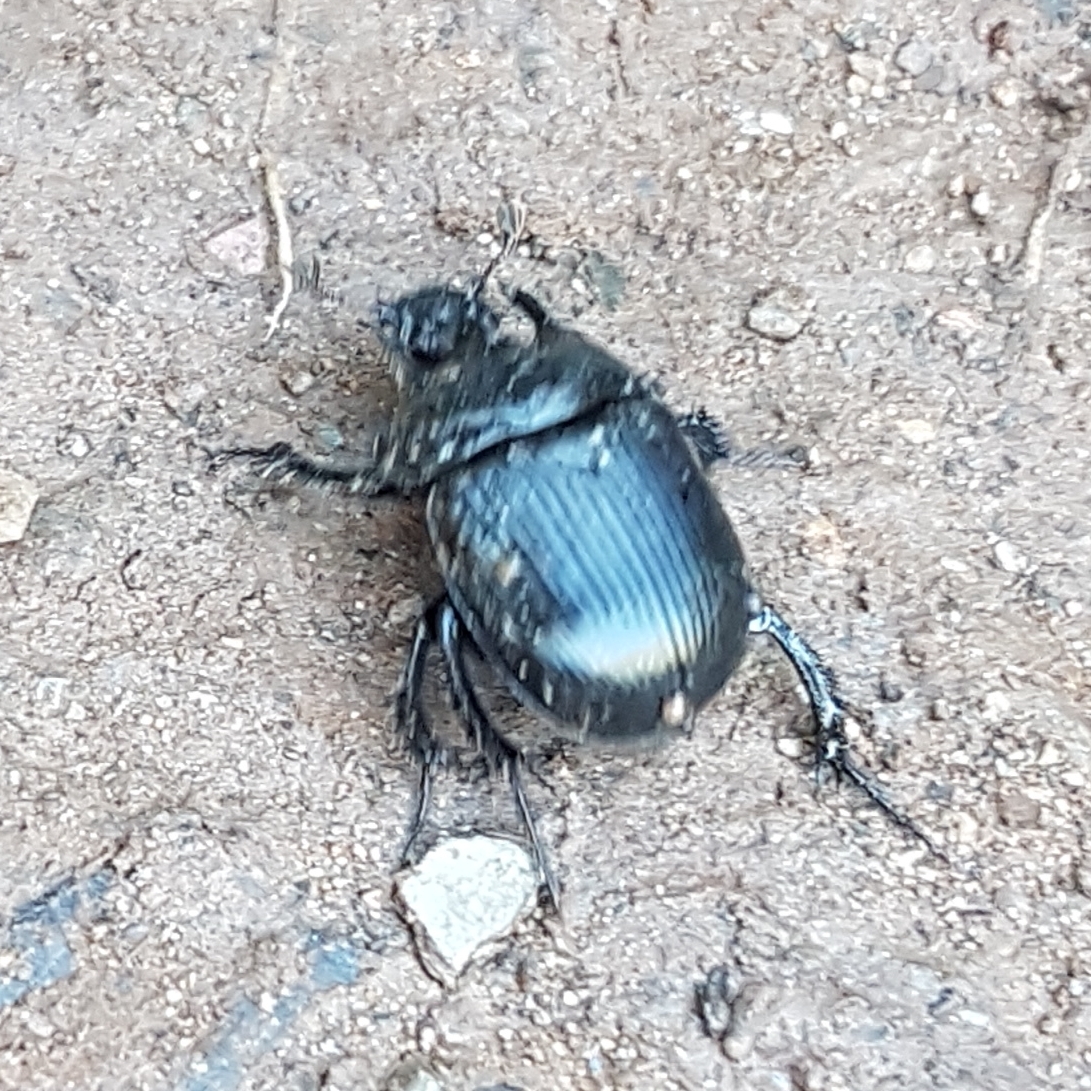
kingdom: Animalia
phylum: Arthropoda
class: Insecta
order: Coleoptera
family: Geotrupidae
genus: Typhaeus
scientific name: Typhaeus typhoeus
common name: Minotaur beetle
